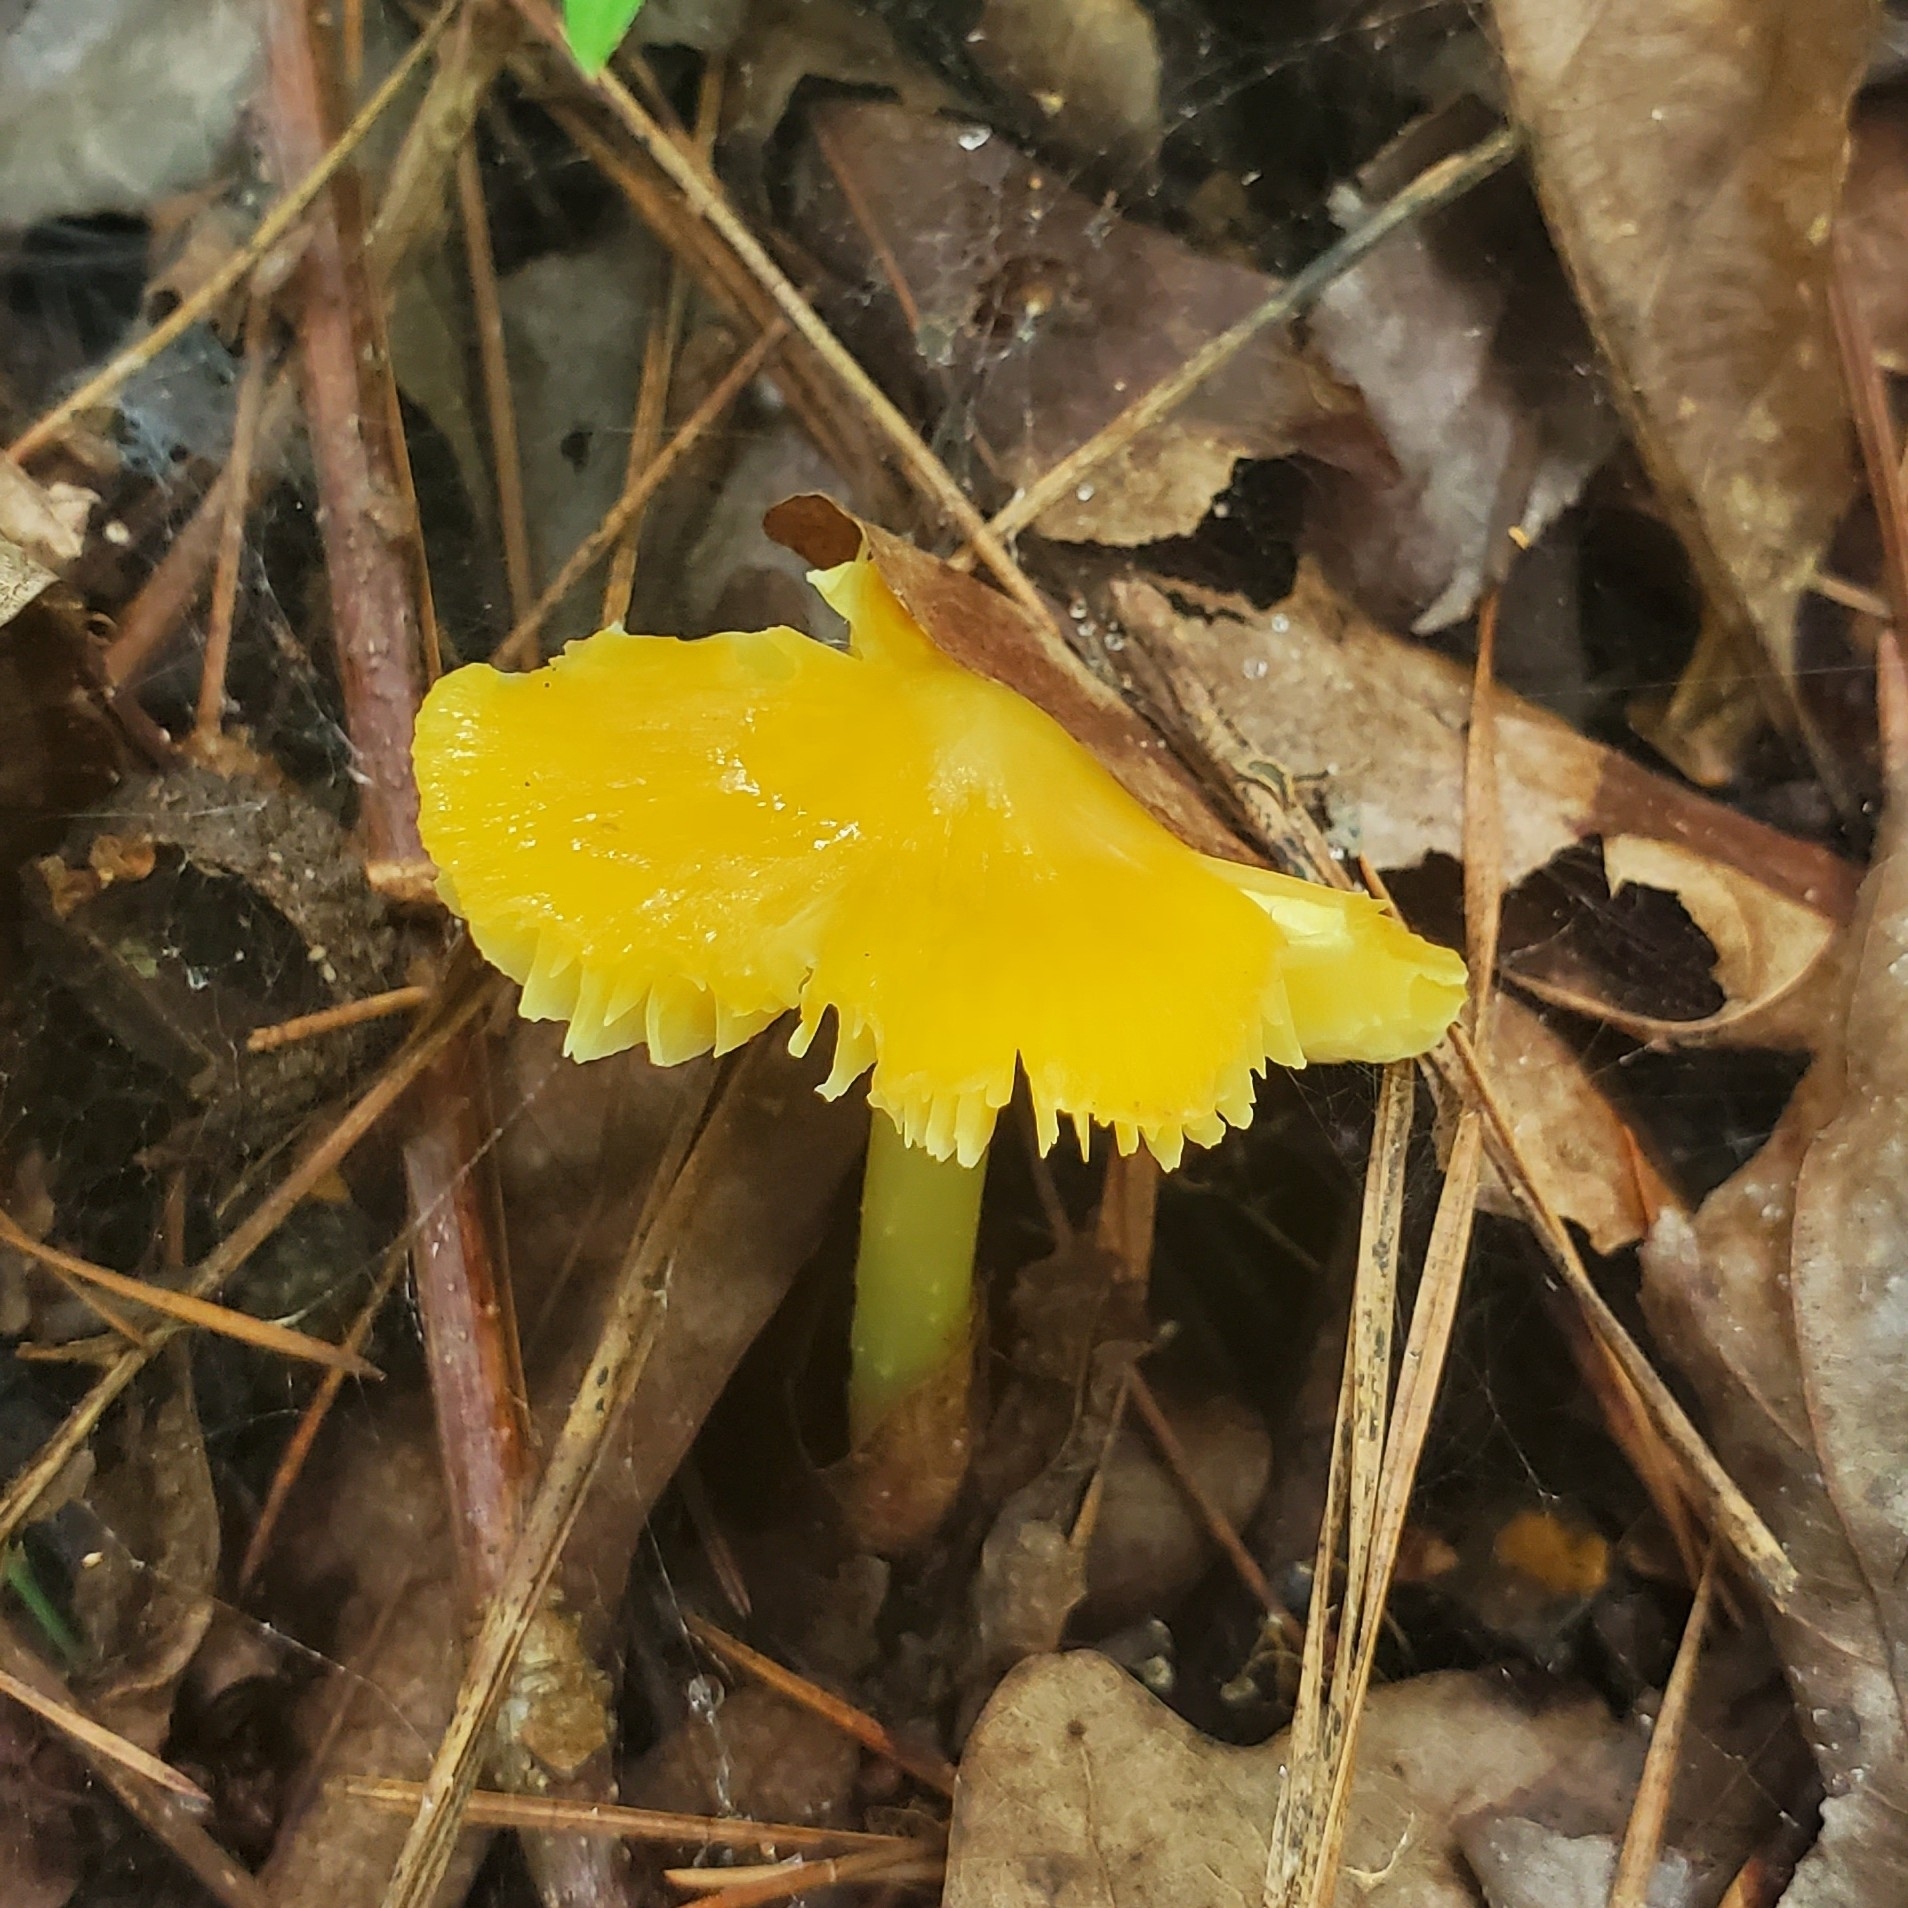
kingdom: Fungi
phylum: Basidiomycota
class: Agaricomycetes
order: Agaricales
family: Hygrophoraceae
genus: Hygrocybe
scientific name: Hygrocybe acutoconica
